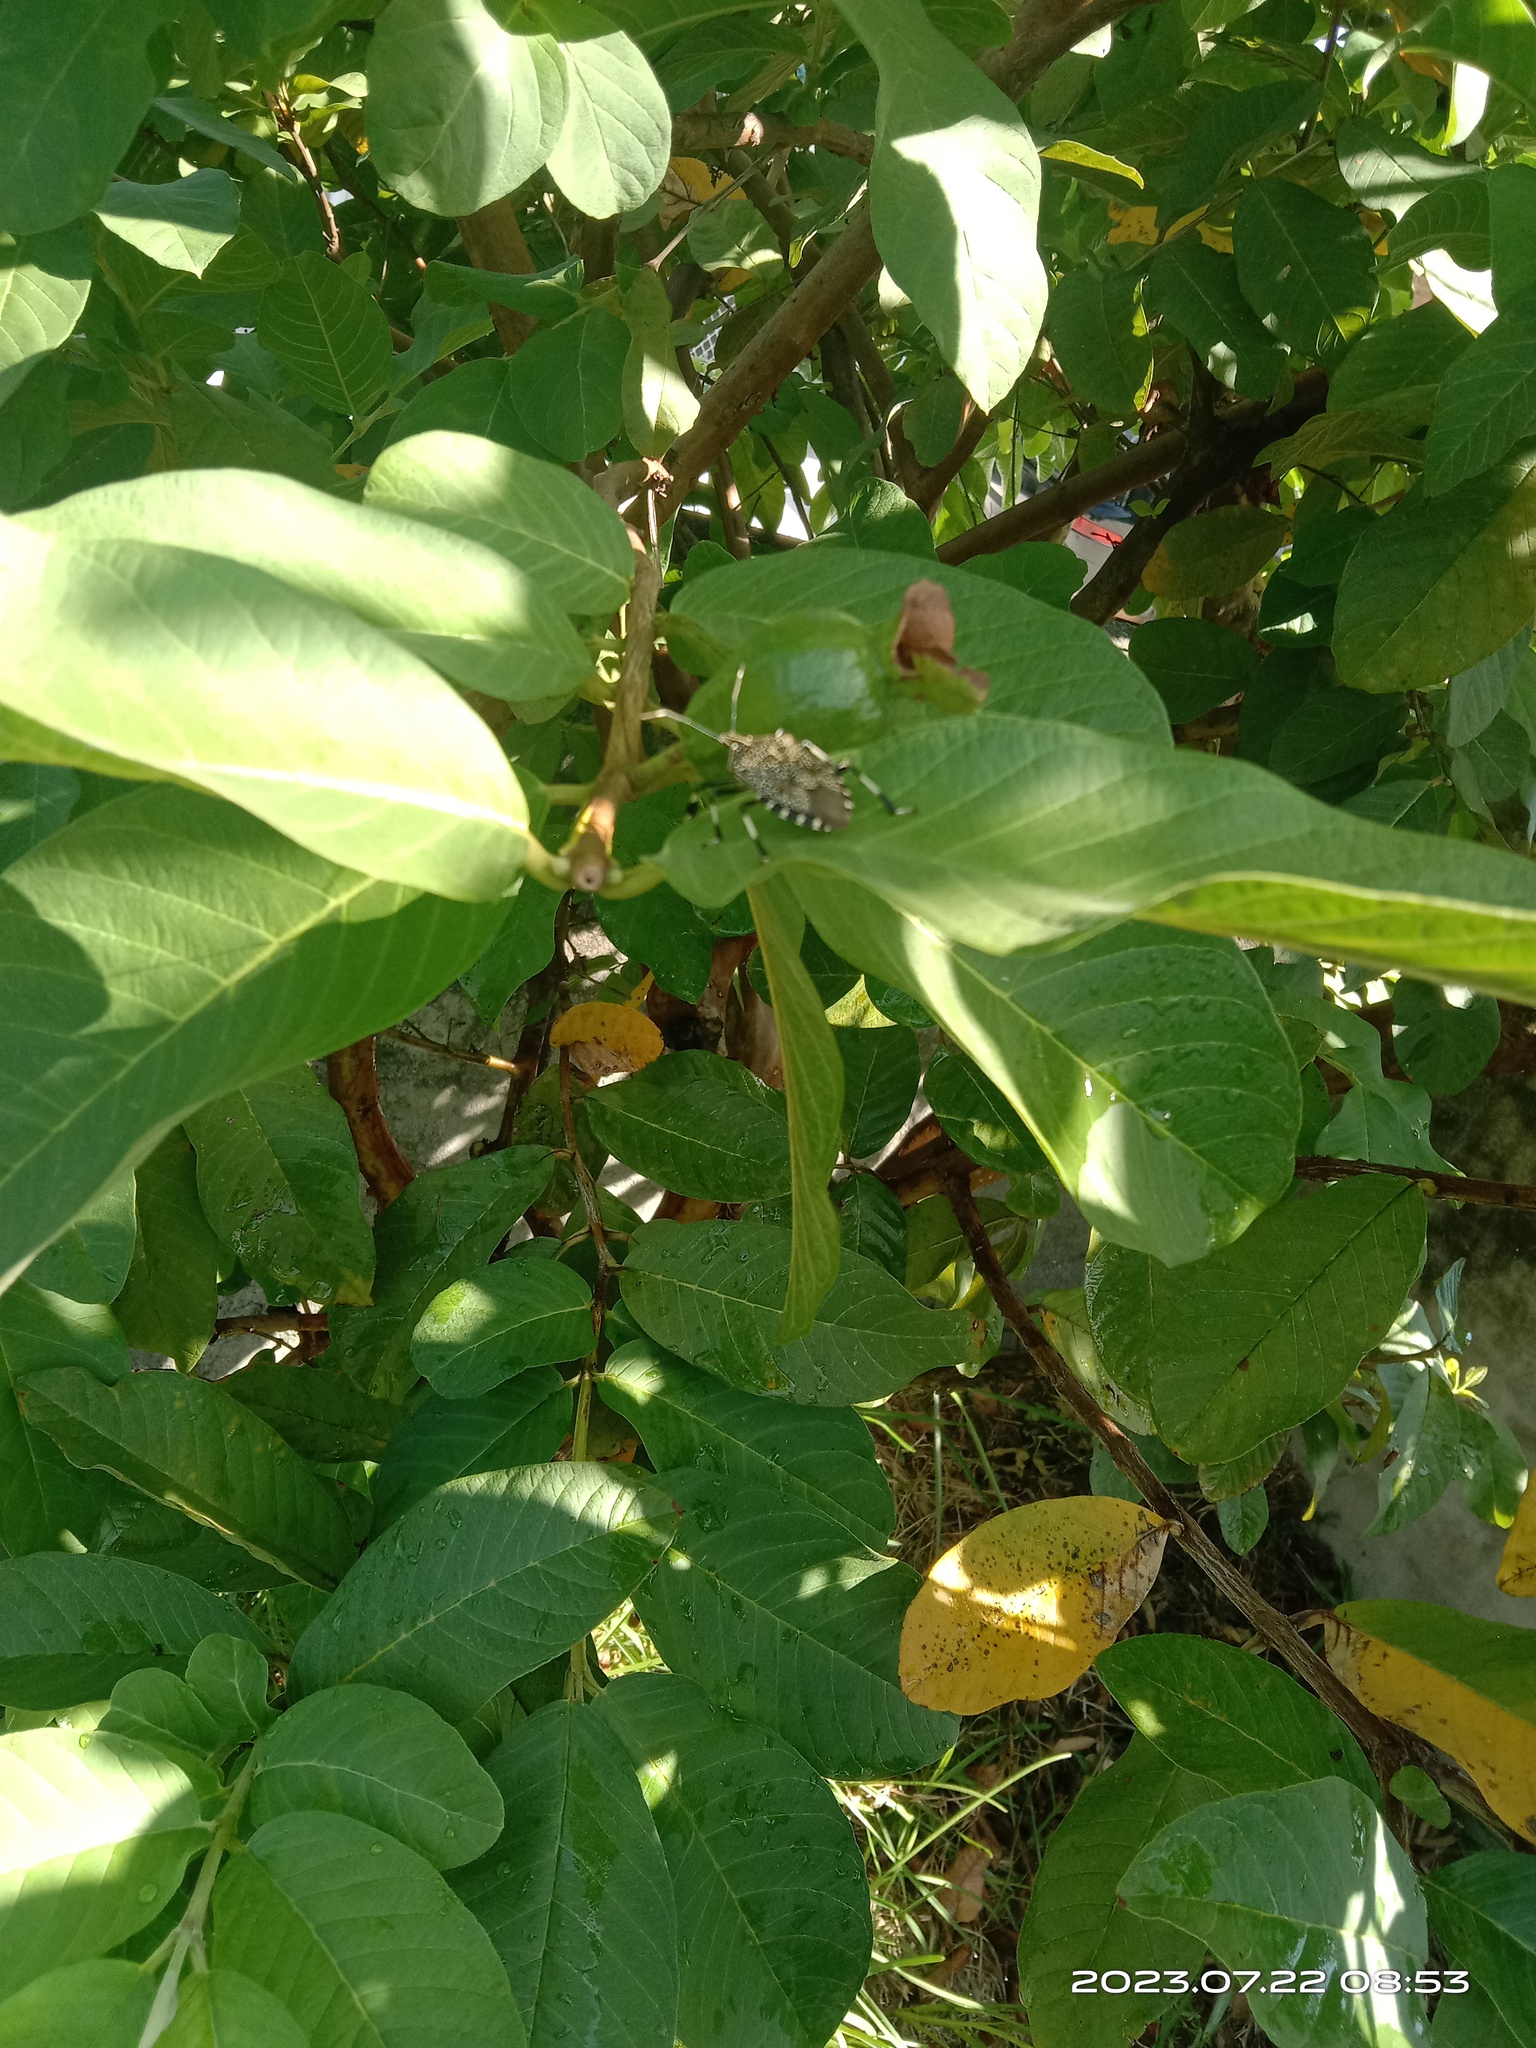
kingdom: Animalia
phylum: Arthropoda
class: Insecta
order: Hemiptera
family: Pentatomidae
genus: Erthesina
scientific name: Erthesina fullo
